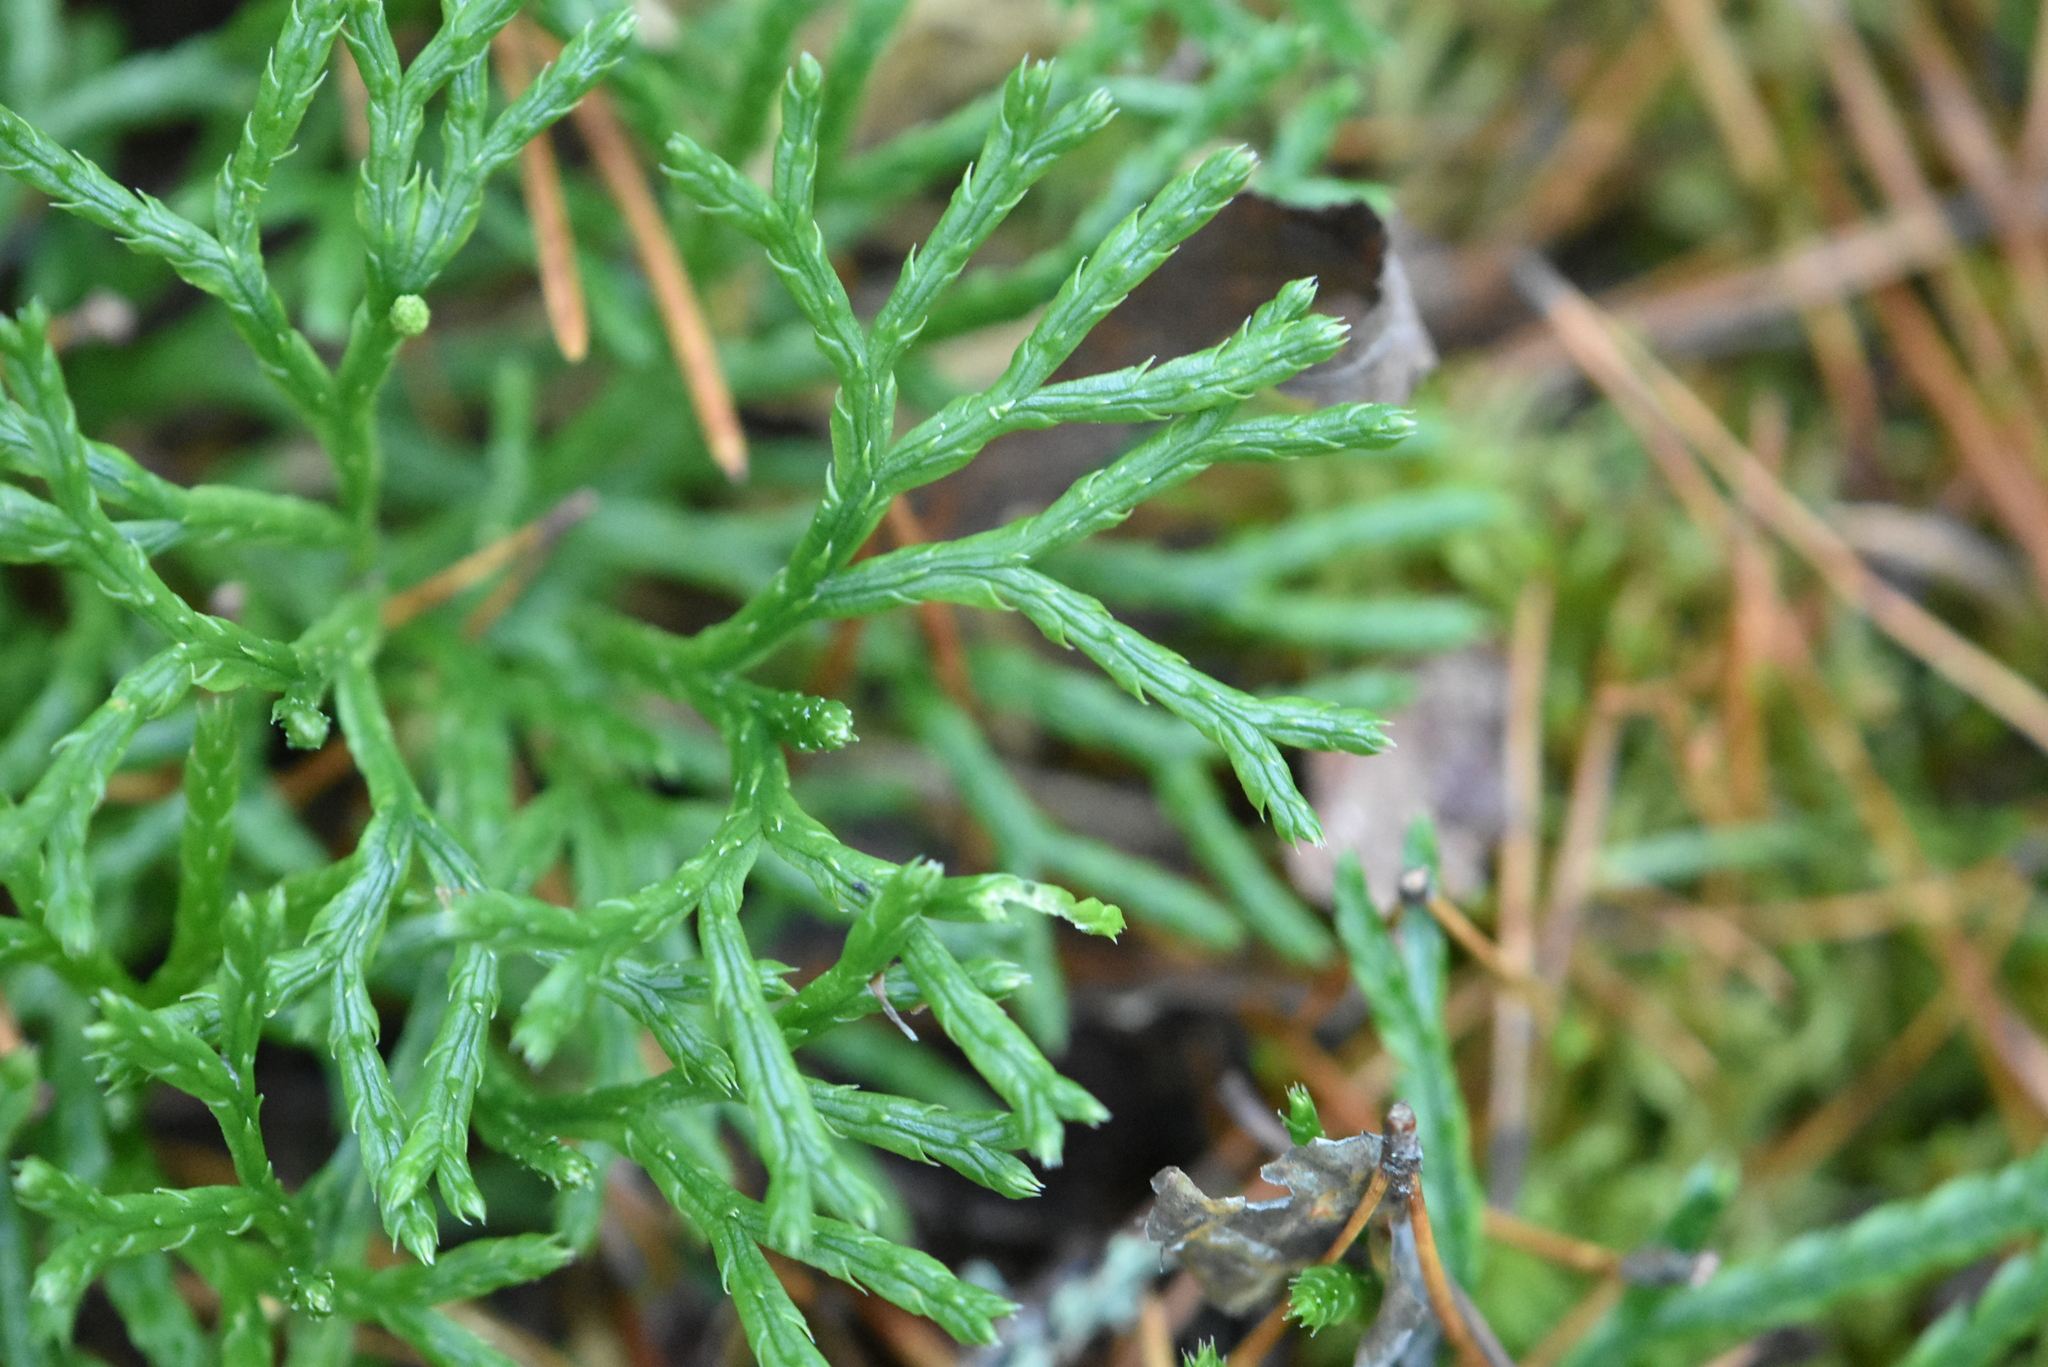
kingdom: Plantae
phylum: Tracheophyta
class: Lycopodiopsida
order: Lycopodiales
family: Lycopodiaceae
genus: Diphasiastrum
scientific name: Diphasiastrum complanatum
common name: Northern running-pine
